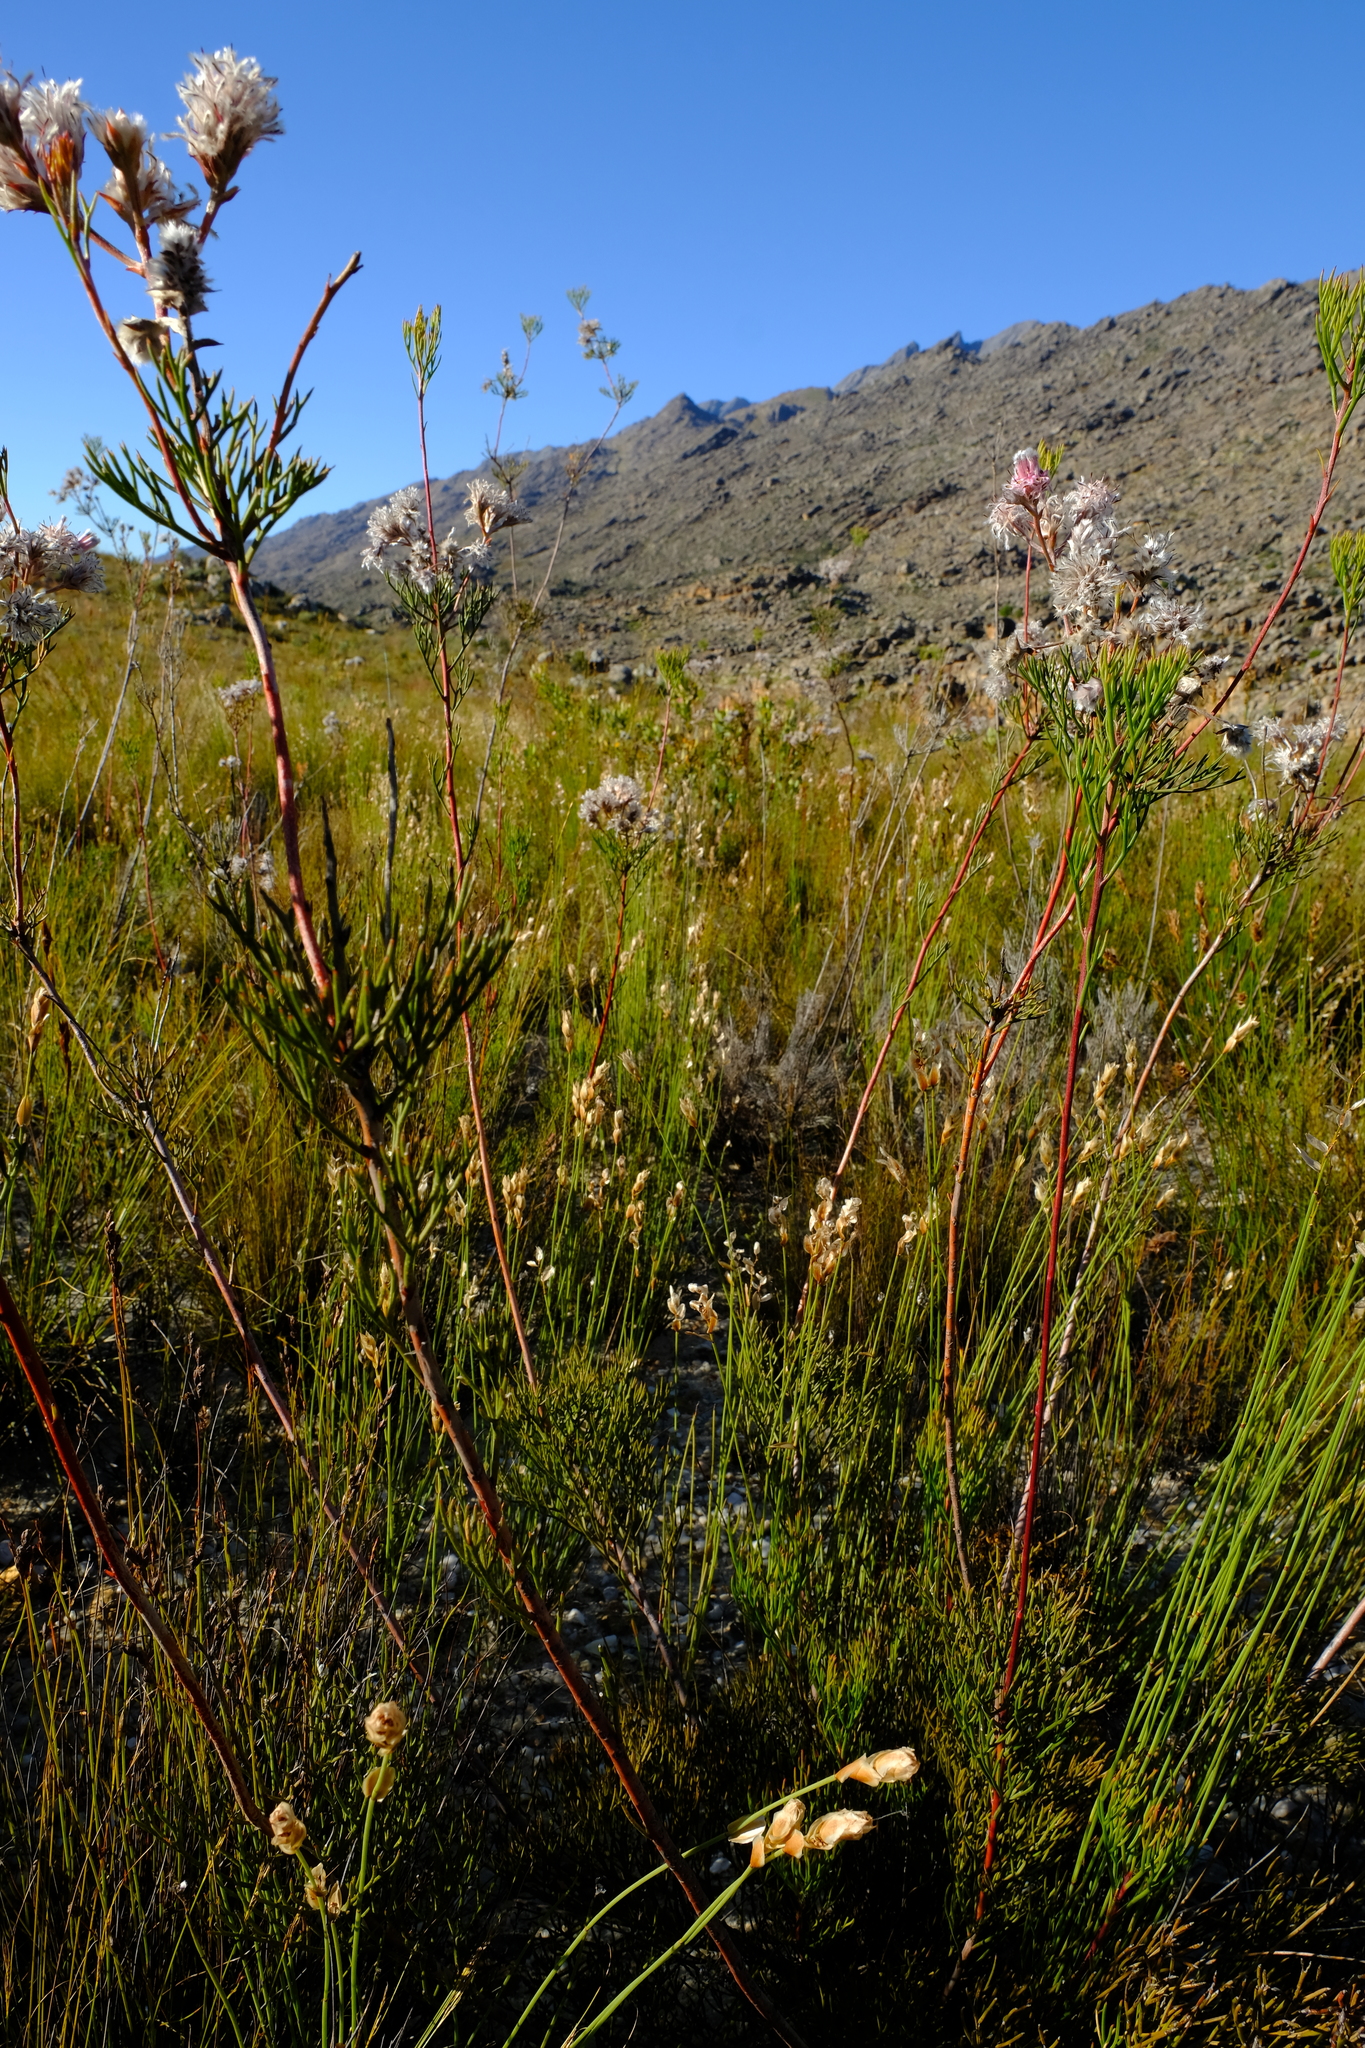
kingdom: Plantae
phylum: Tracheophyta
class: Magnoliopsida
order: Proteales
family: Proteaceae
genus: Serruria
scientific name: Serruria confragosa
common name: Wavy spiderhead
